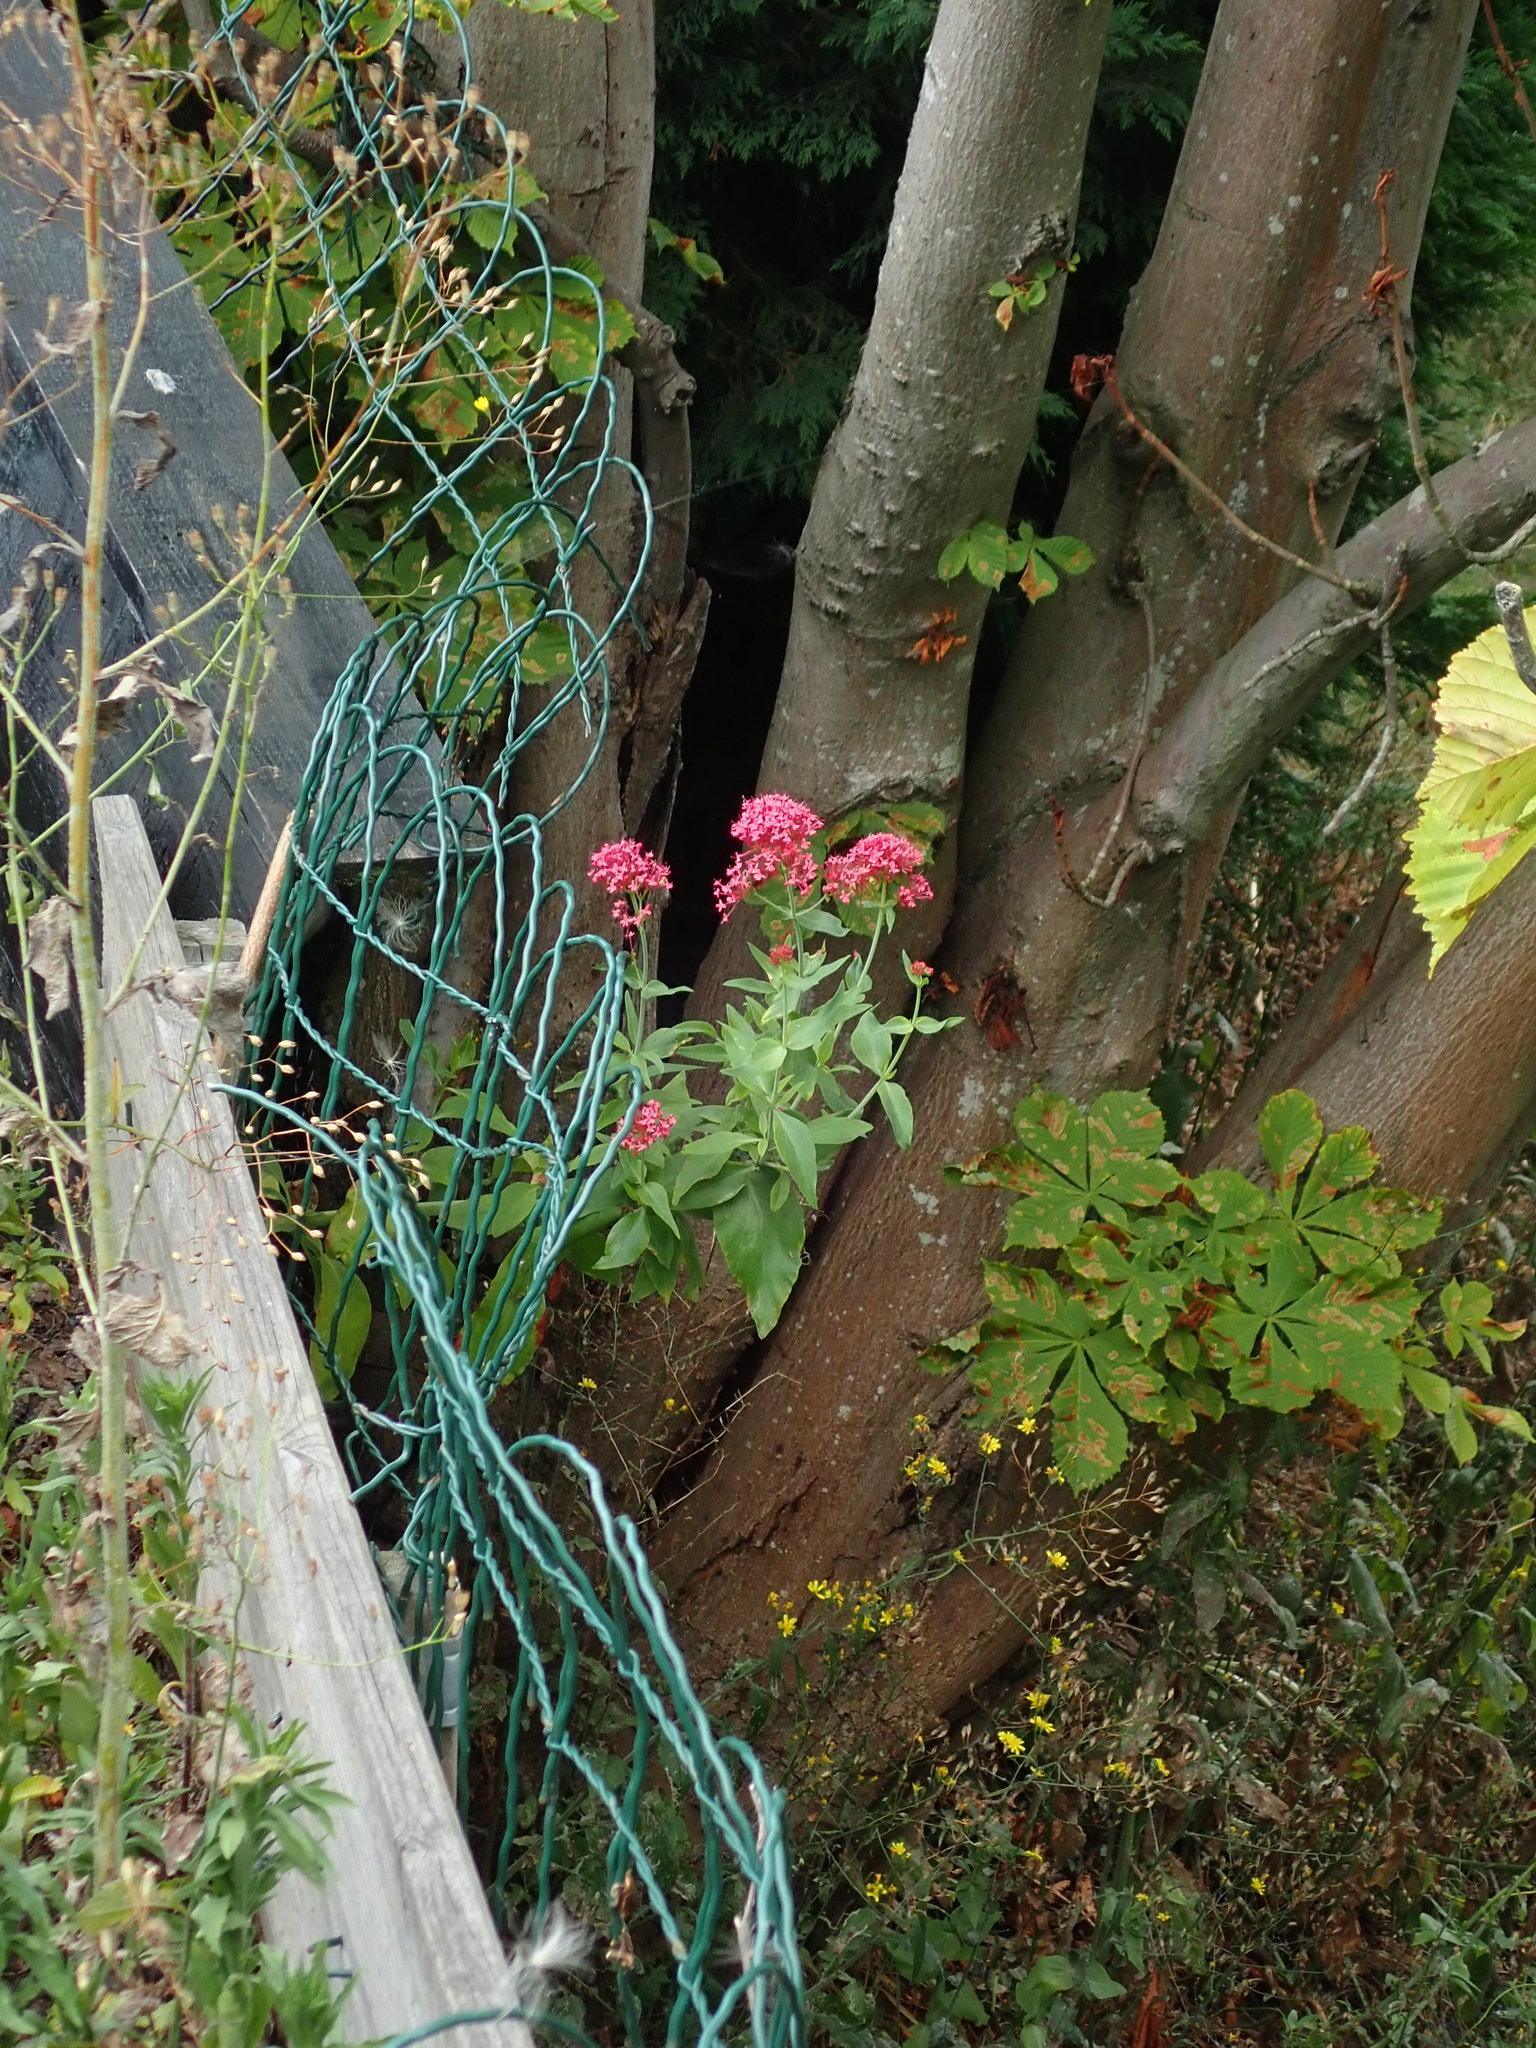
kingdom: Plantae
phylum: Tracheophyta
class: Magnoliopsida
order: Dipsacales
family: Caprifoliaceae
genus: Centranthus
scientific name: Centranthus ruber
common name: Red valerian
